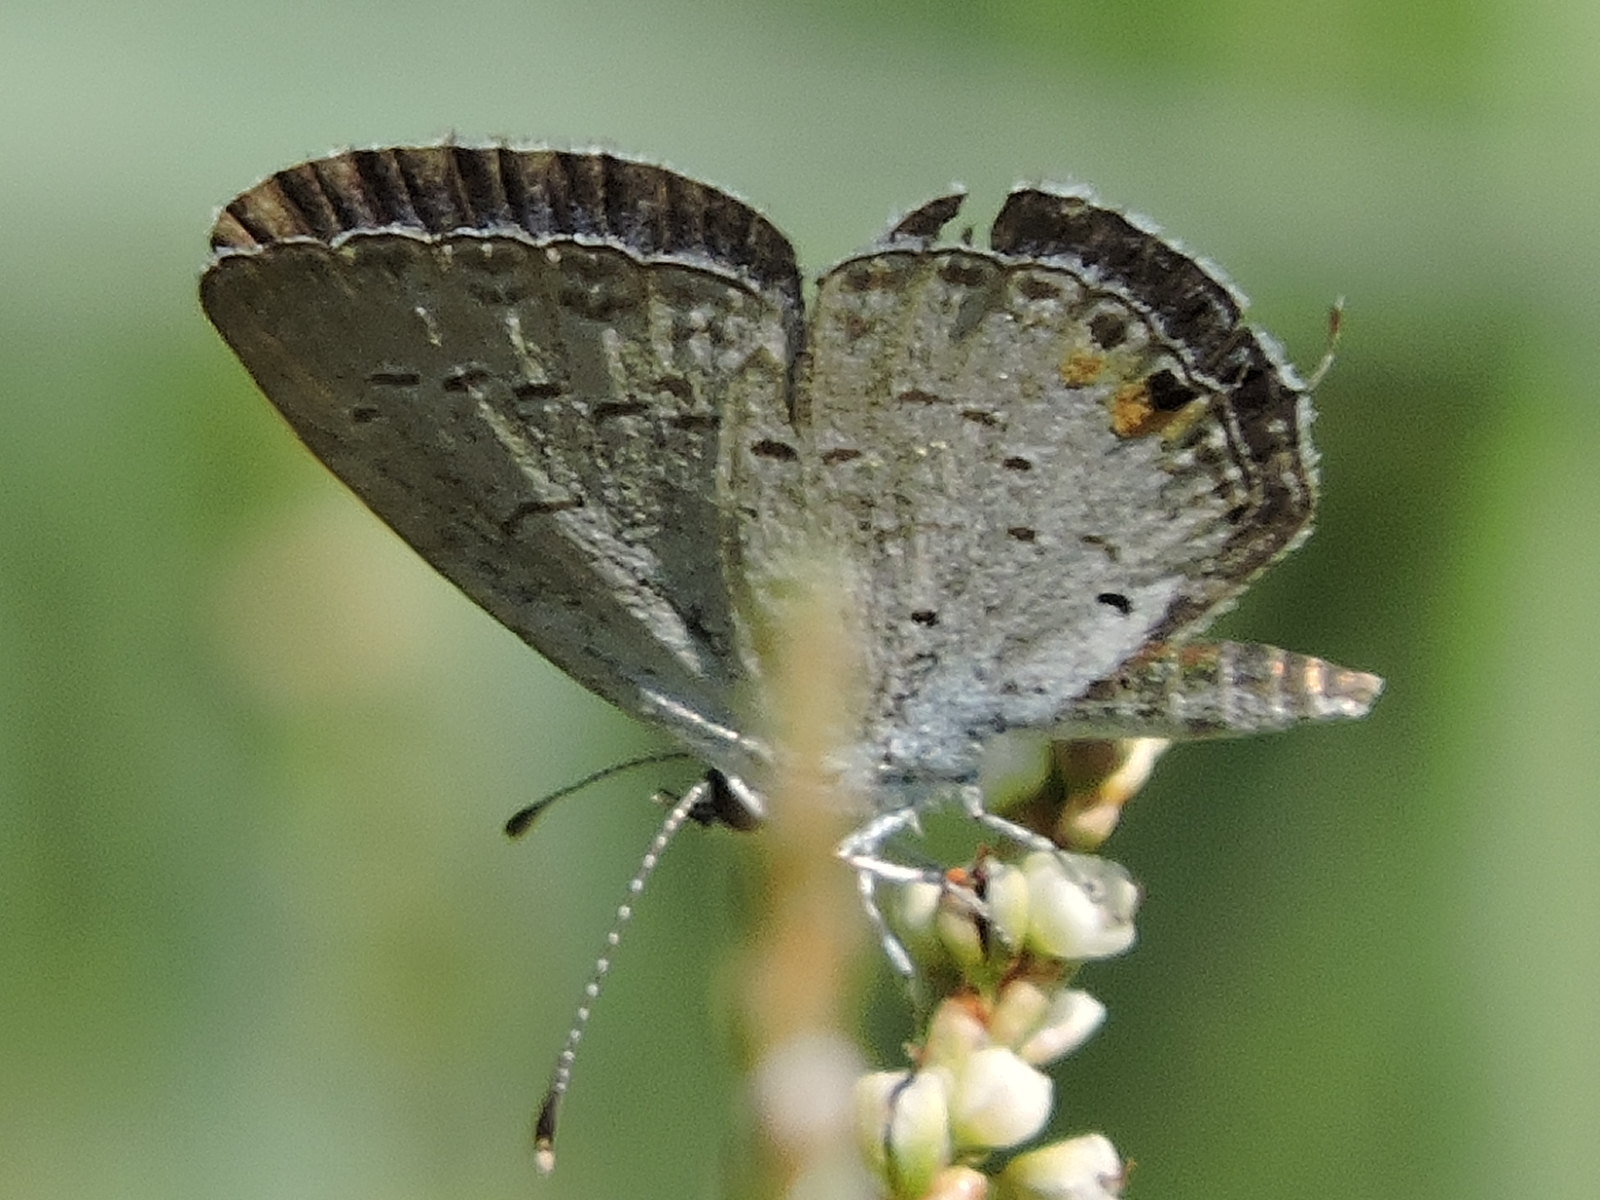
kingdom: Animalia
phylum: Arthropoda
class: Insecta
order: Lepidoptera
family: Lycaenidae
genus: Elkalyce
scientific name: Elkalyce comyntas
